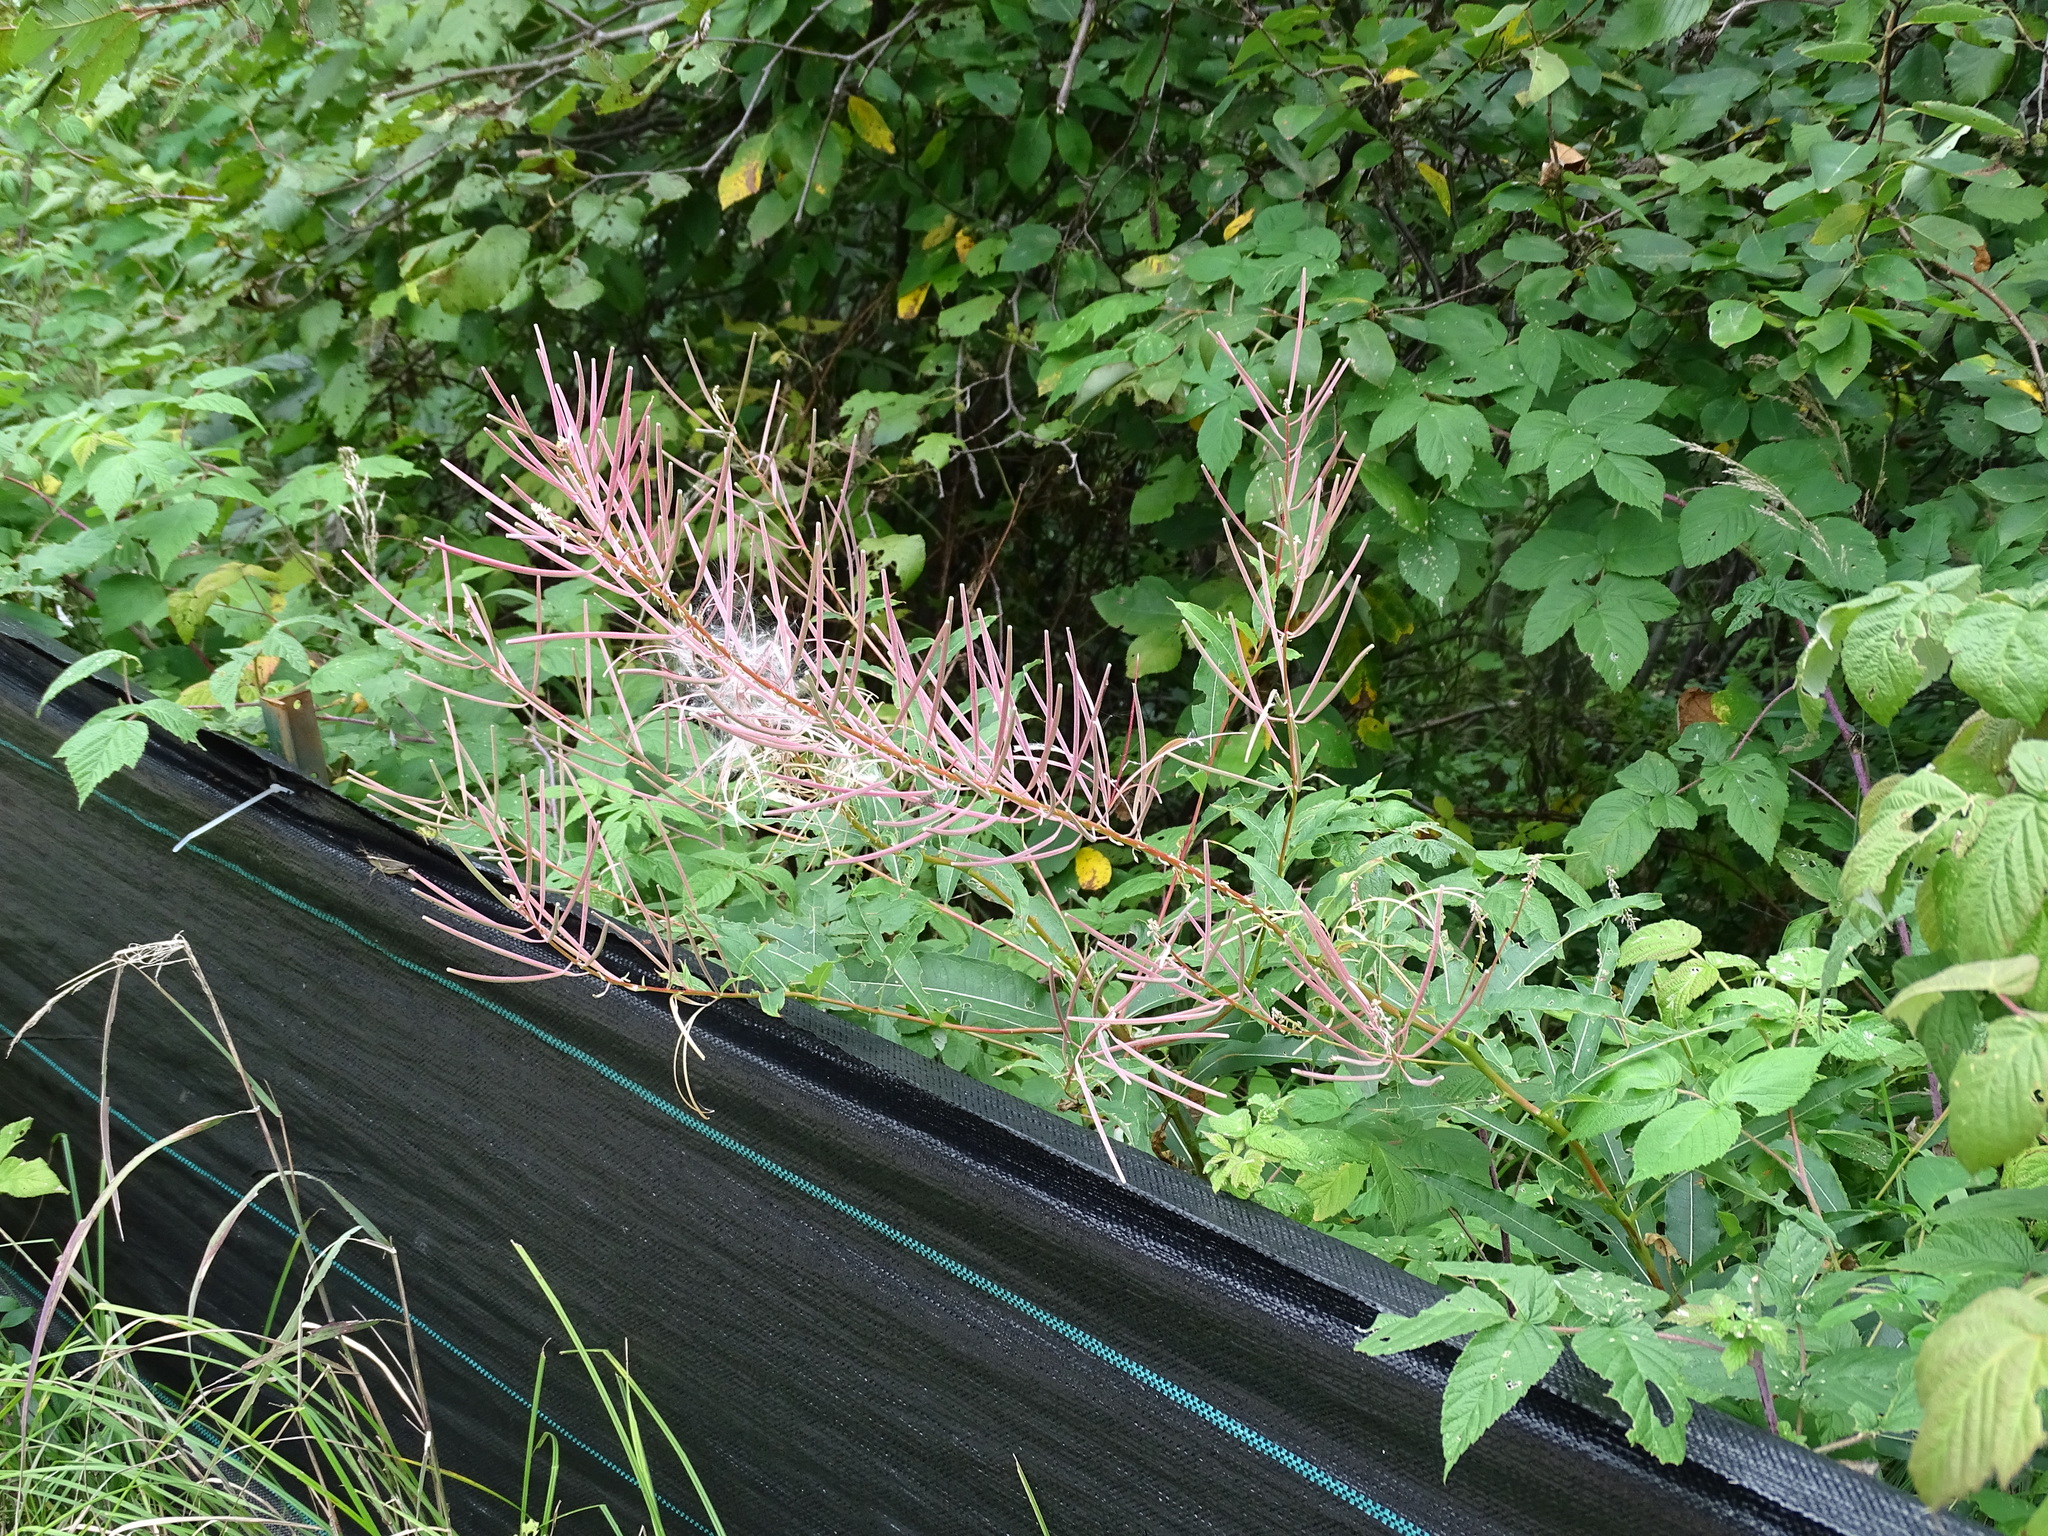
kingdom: Plantae
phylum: Tracheophyta
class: Magnoliopsida
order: Myrtales
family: Onagraceae
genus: Chamaenerion
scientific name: Chamaenerion angustifolium
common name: Fireweed
